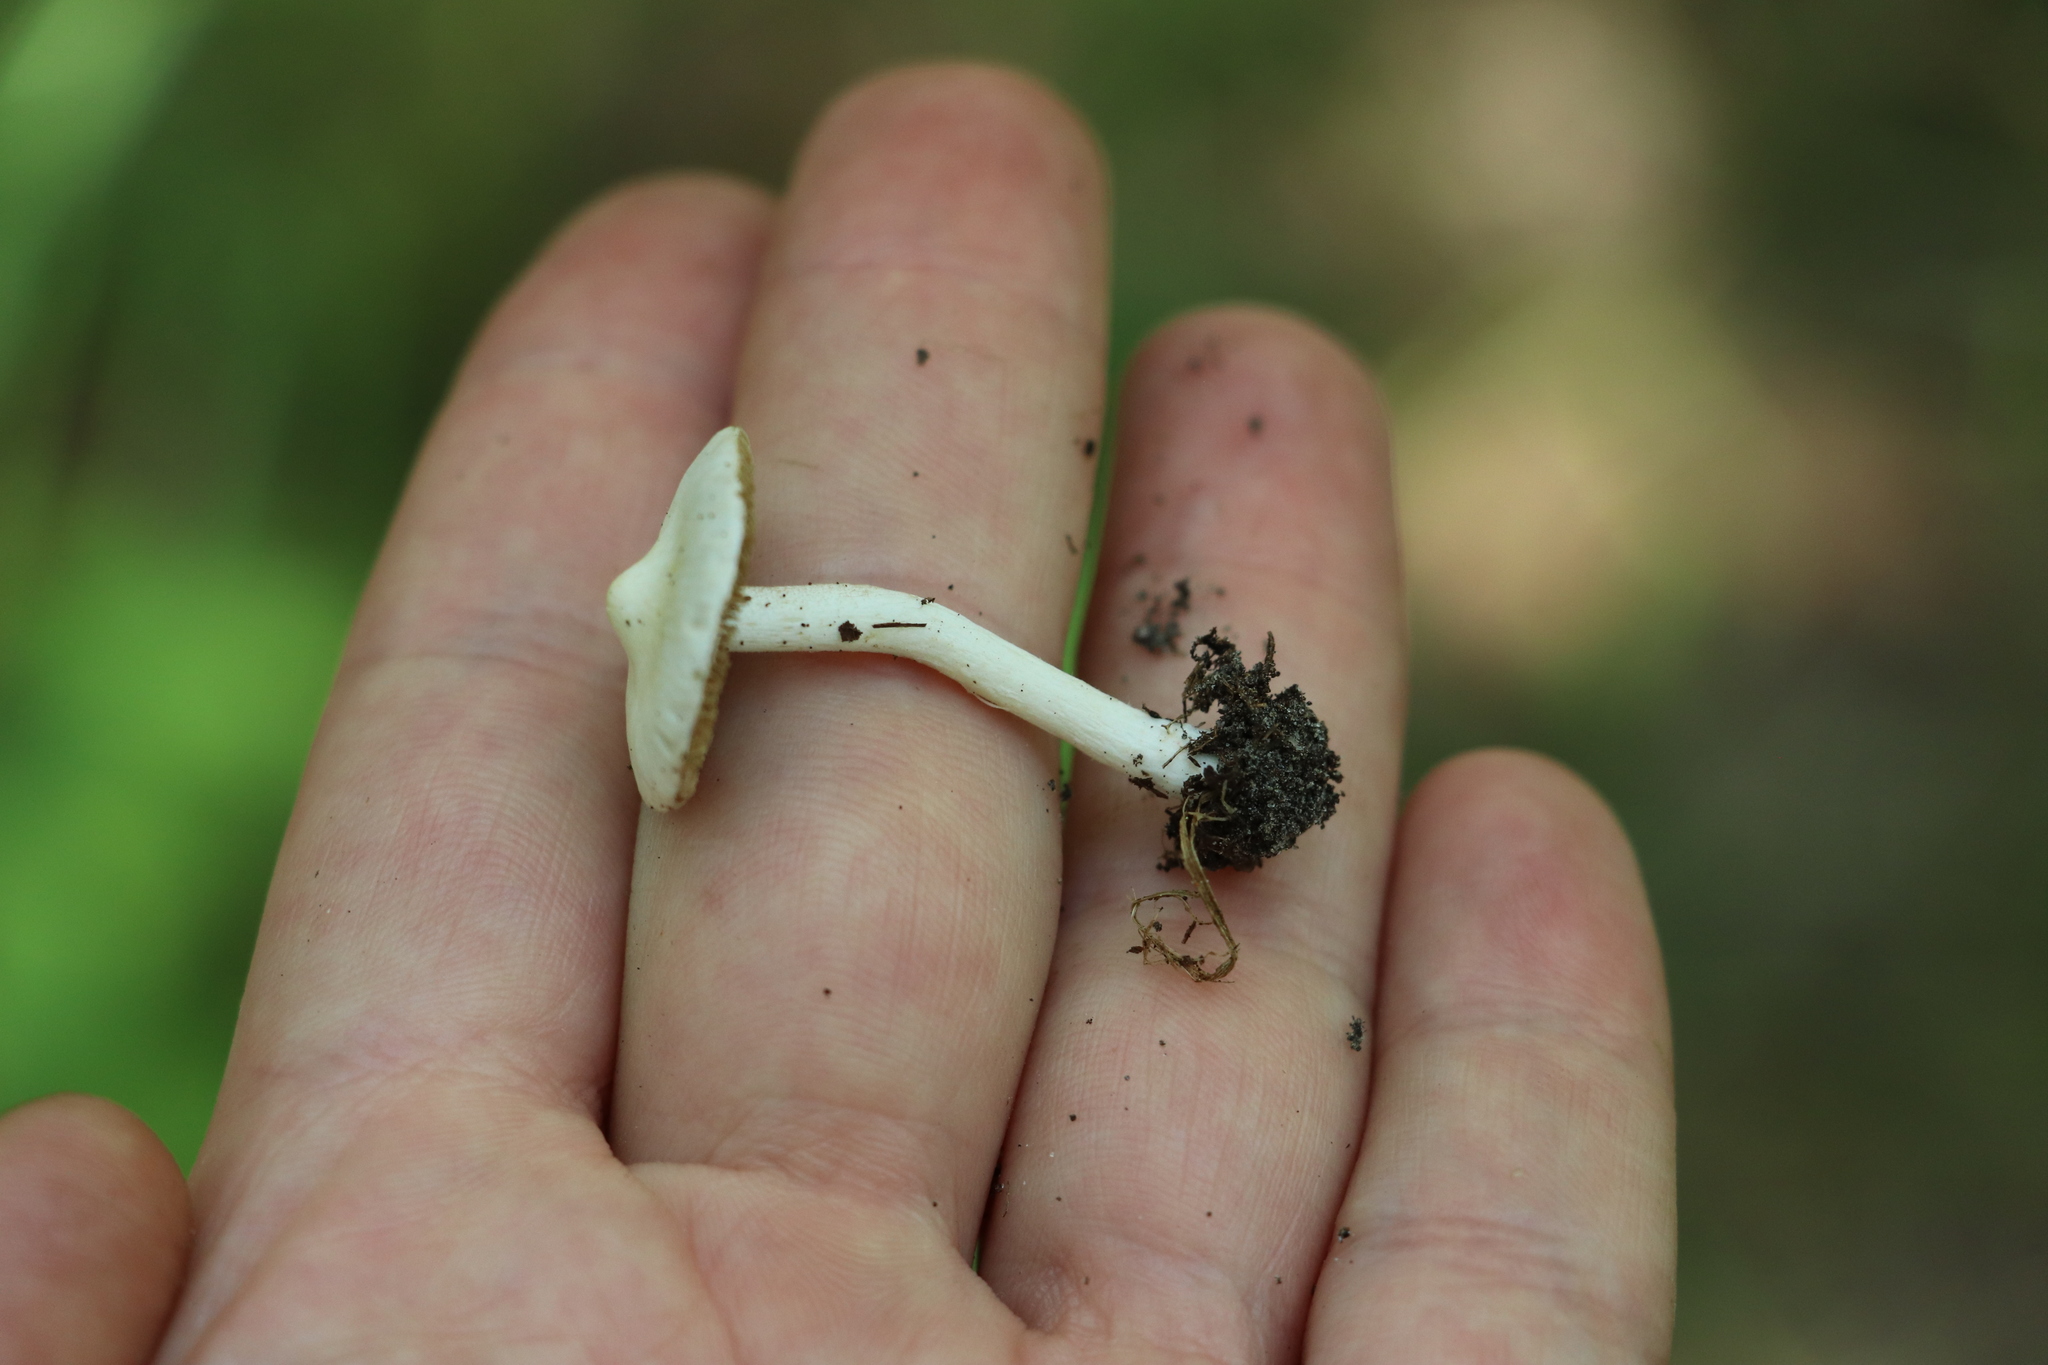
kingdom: Fungi
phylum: Basidiomycota
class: Agaricomycetes
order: Agaricales
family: Inocybaceae
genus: Inocybe
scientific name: Inocybe geophylla
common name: White fibrecap
